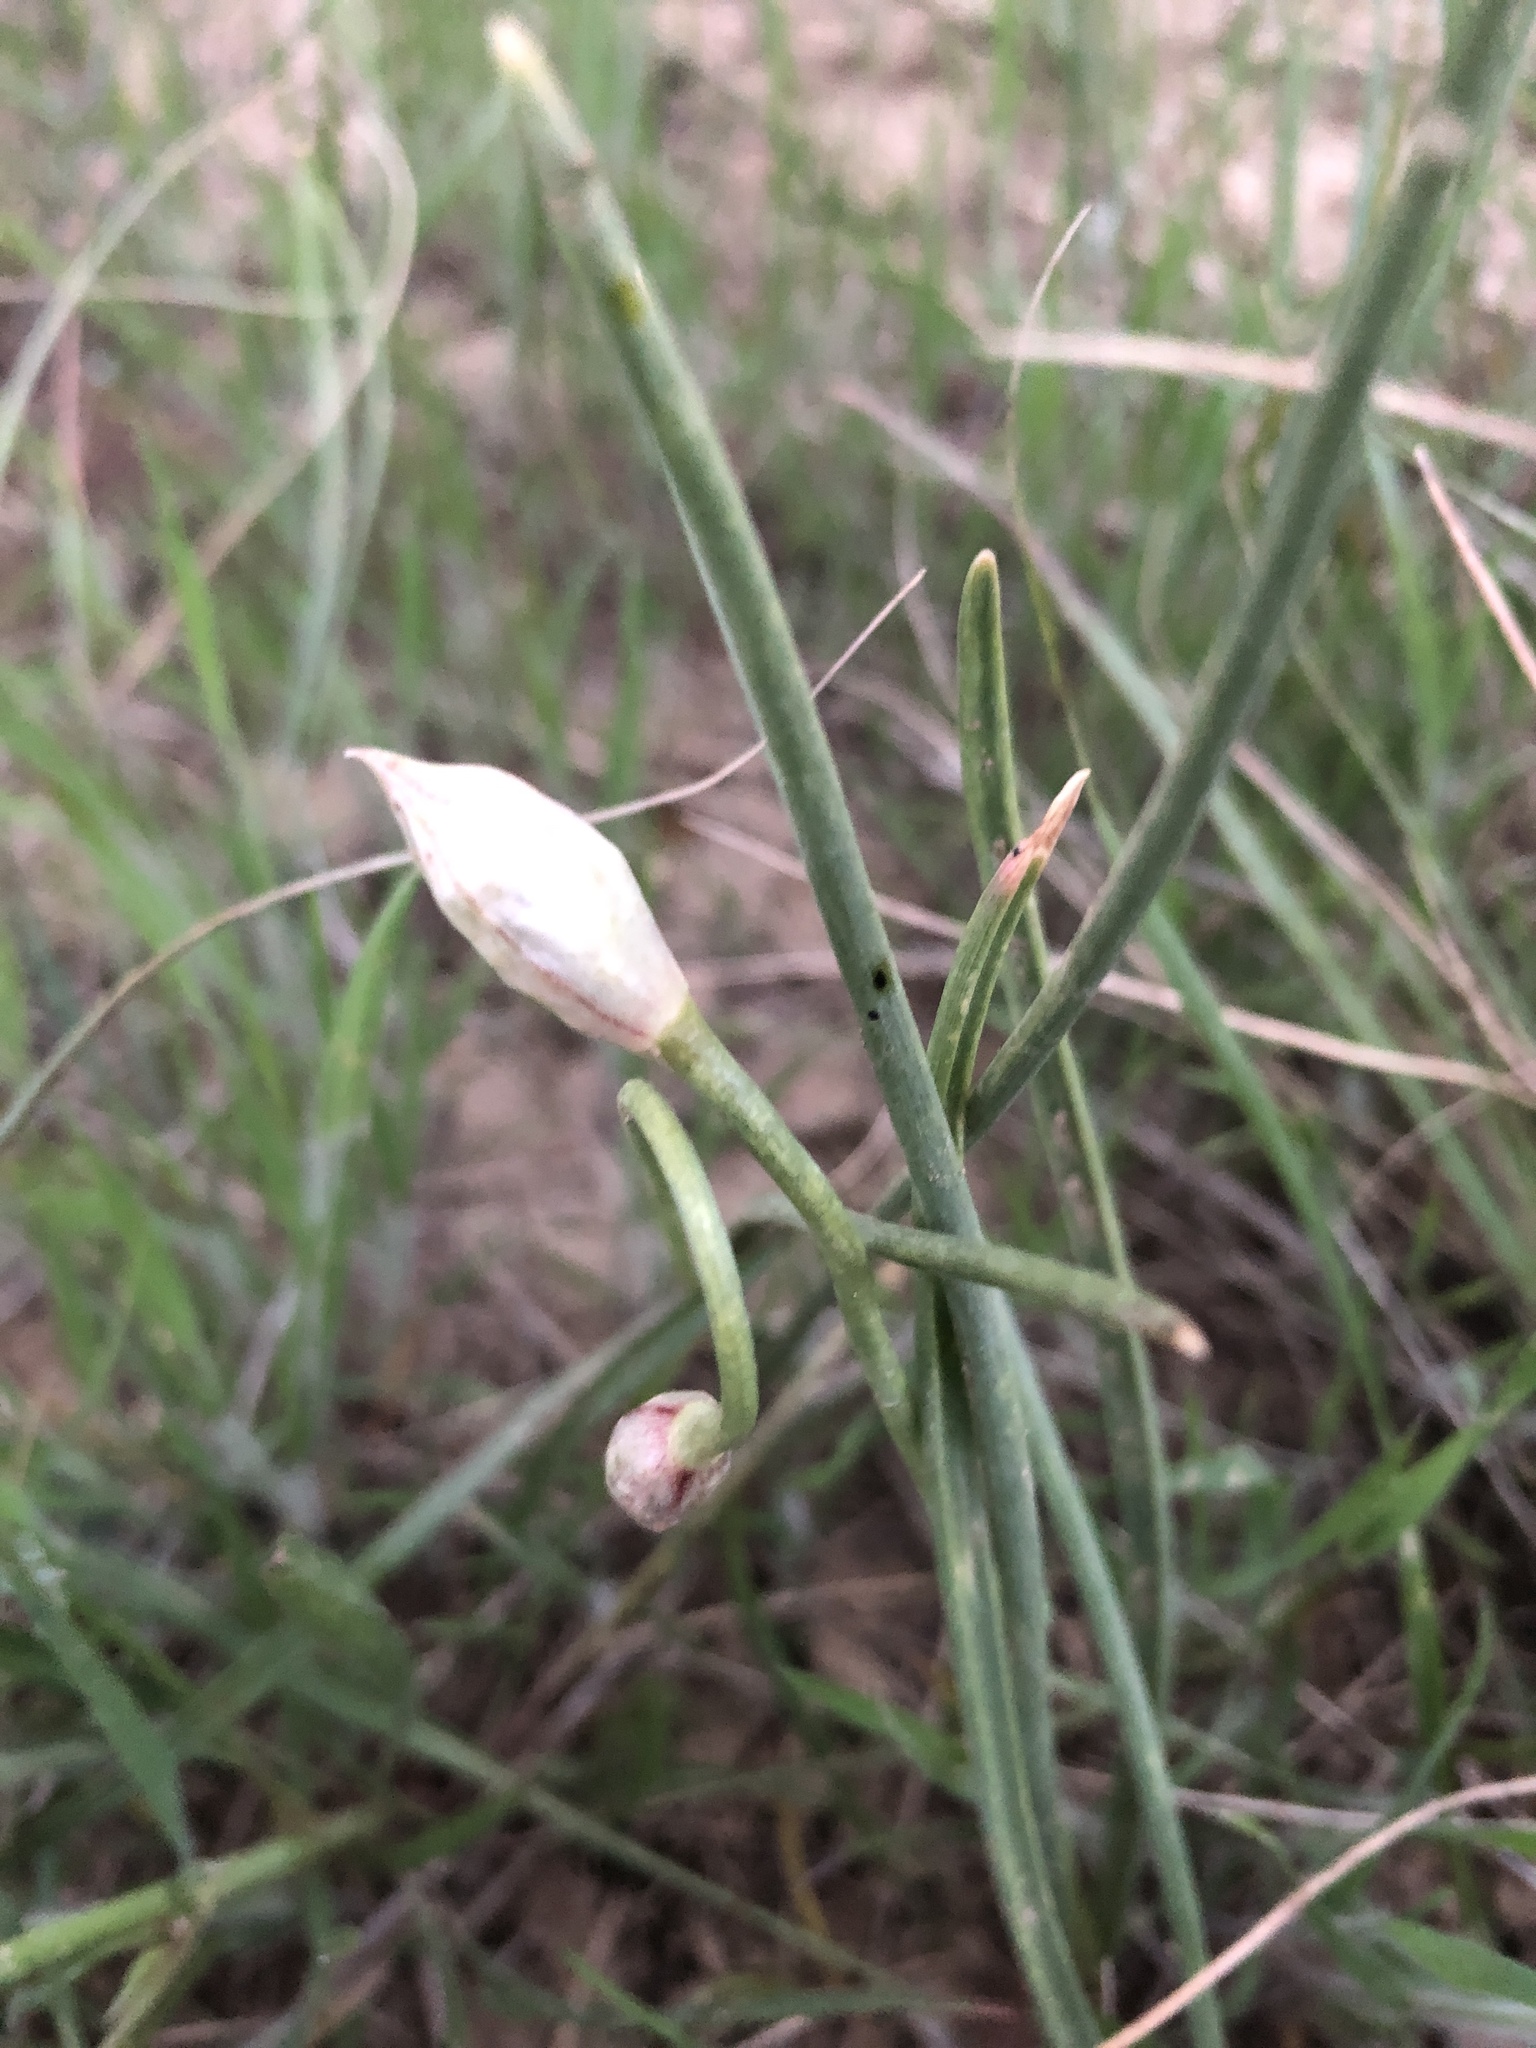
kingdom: Plantae
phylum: Tracheophyta
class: Magnoliopsida
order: Fabales
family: Fabaceae
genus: Trifolium
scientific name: Trifolium repens
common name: White clover
